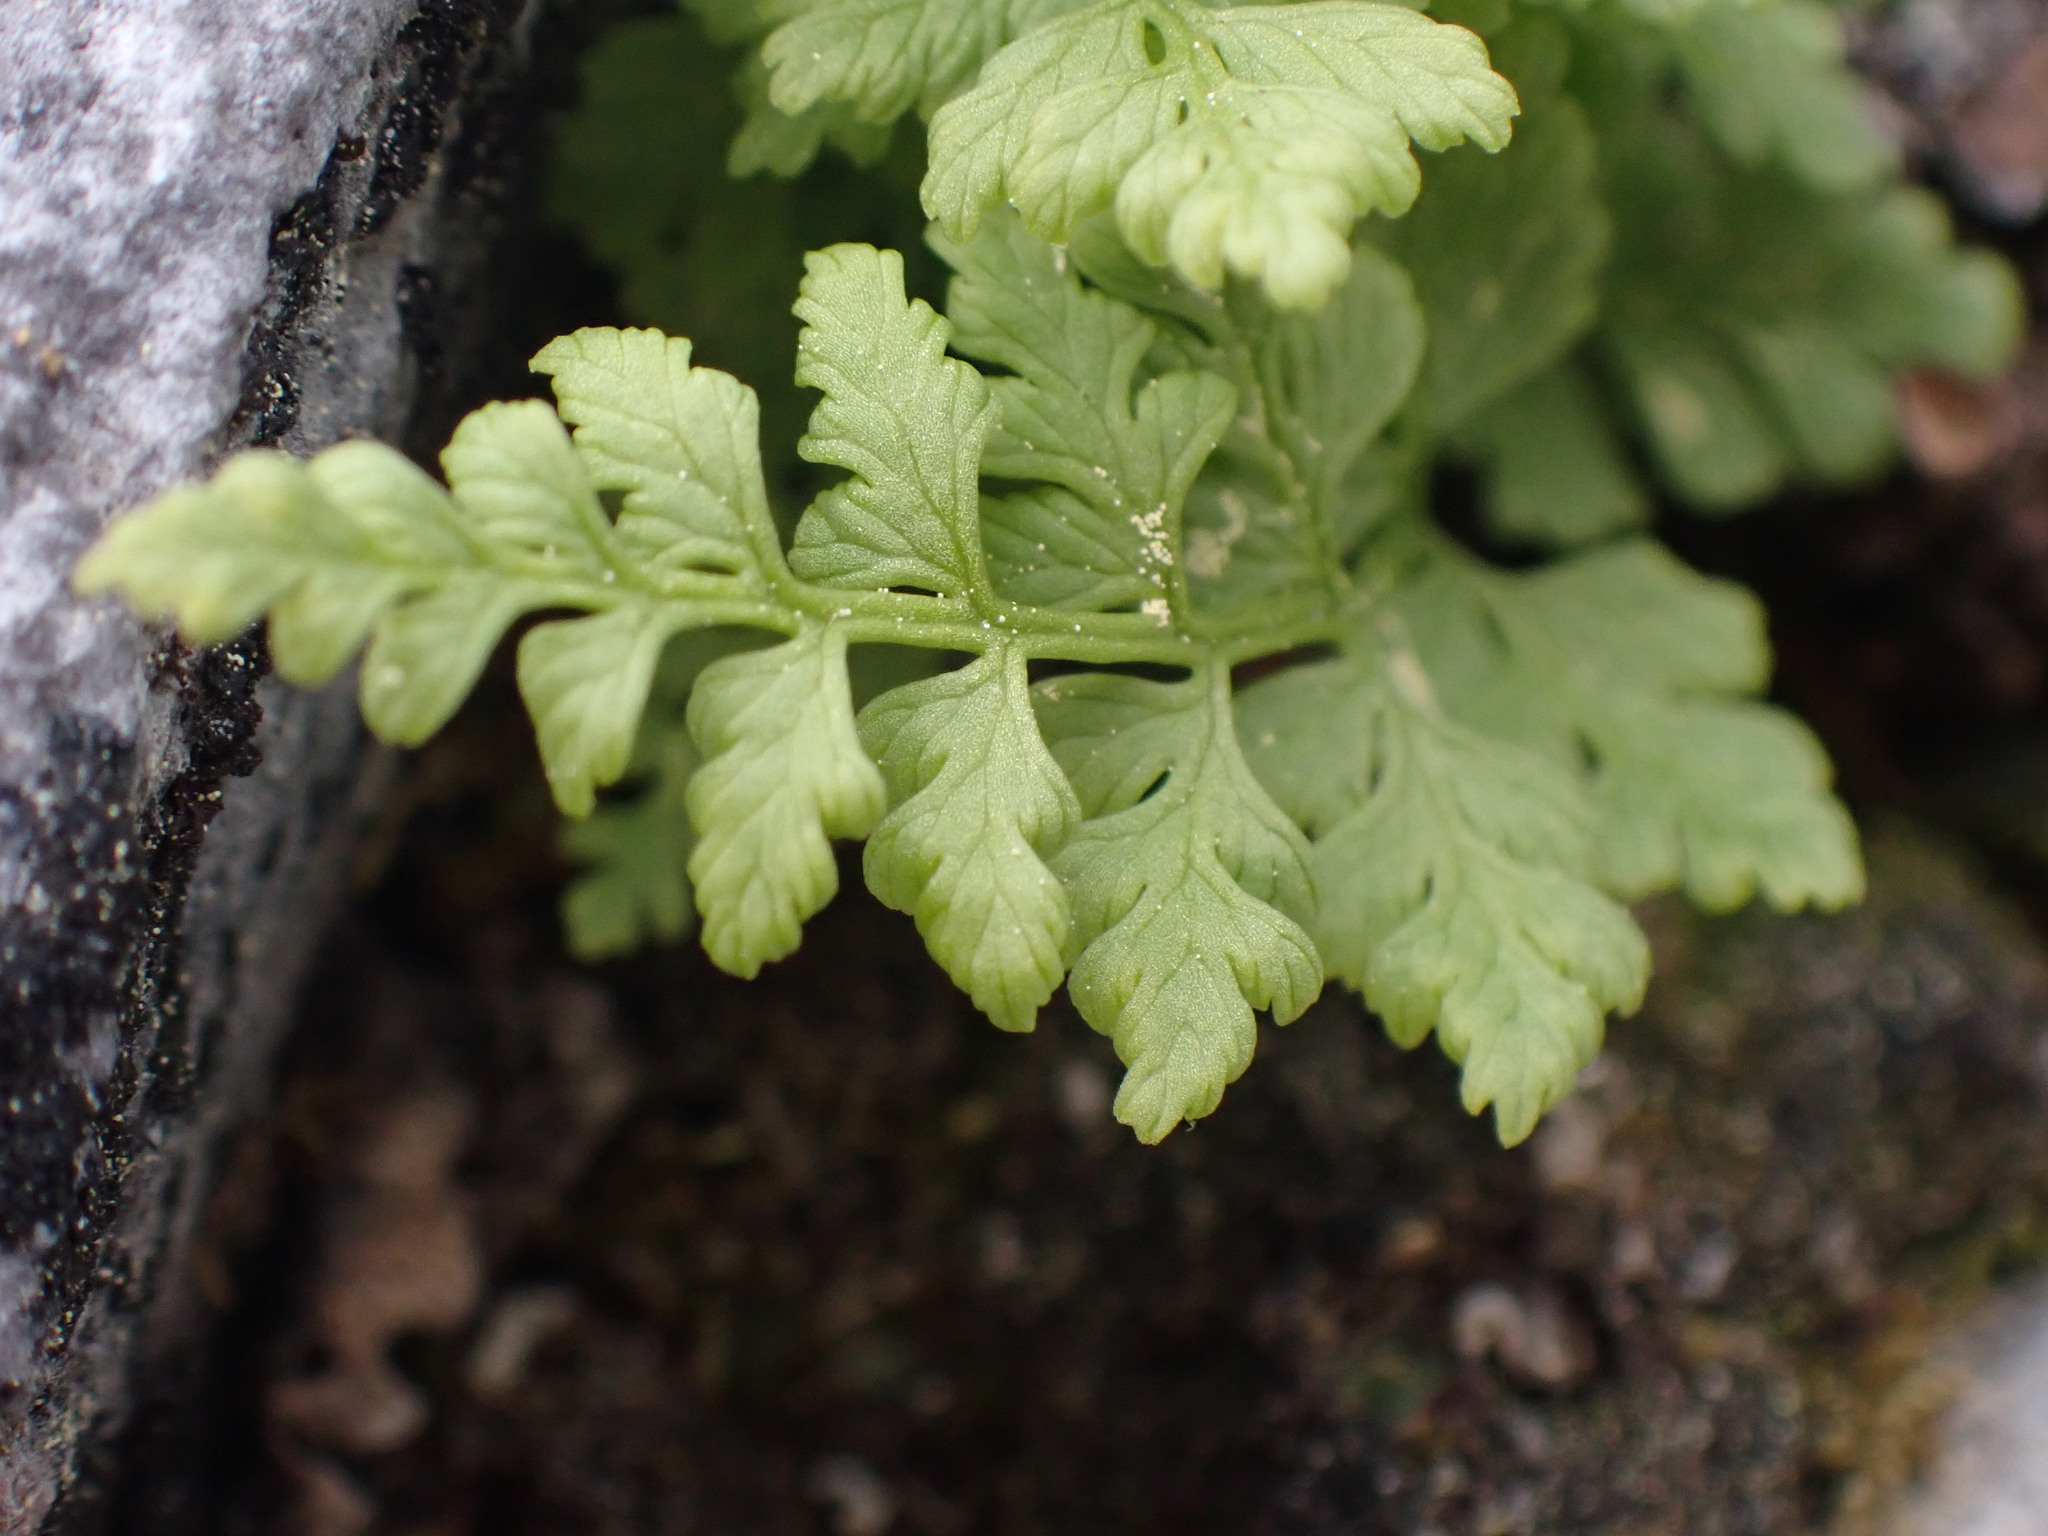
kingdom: Plantae
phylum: Tracheophyta
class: Polypodiopsida
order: Polypodiales
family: Cystopteridaceae
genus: Cystopteris
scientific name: Cystopteris fragilis
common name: Brittle bladder fern
